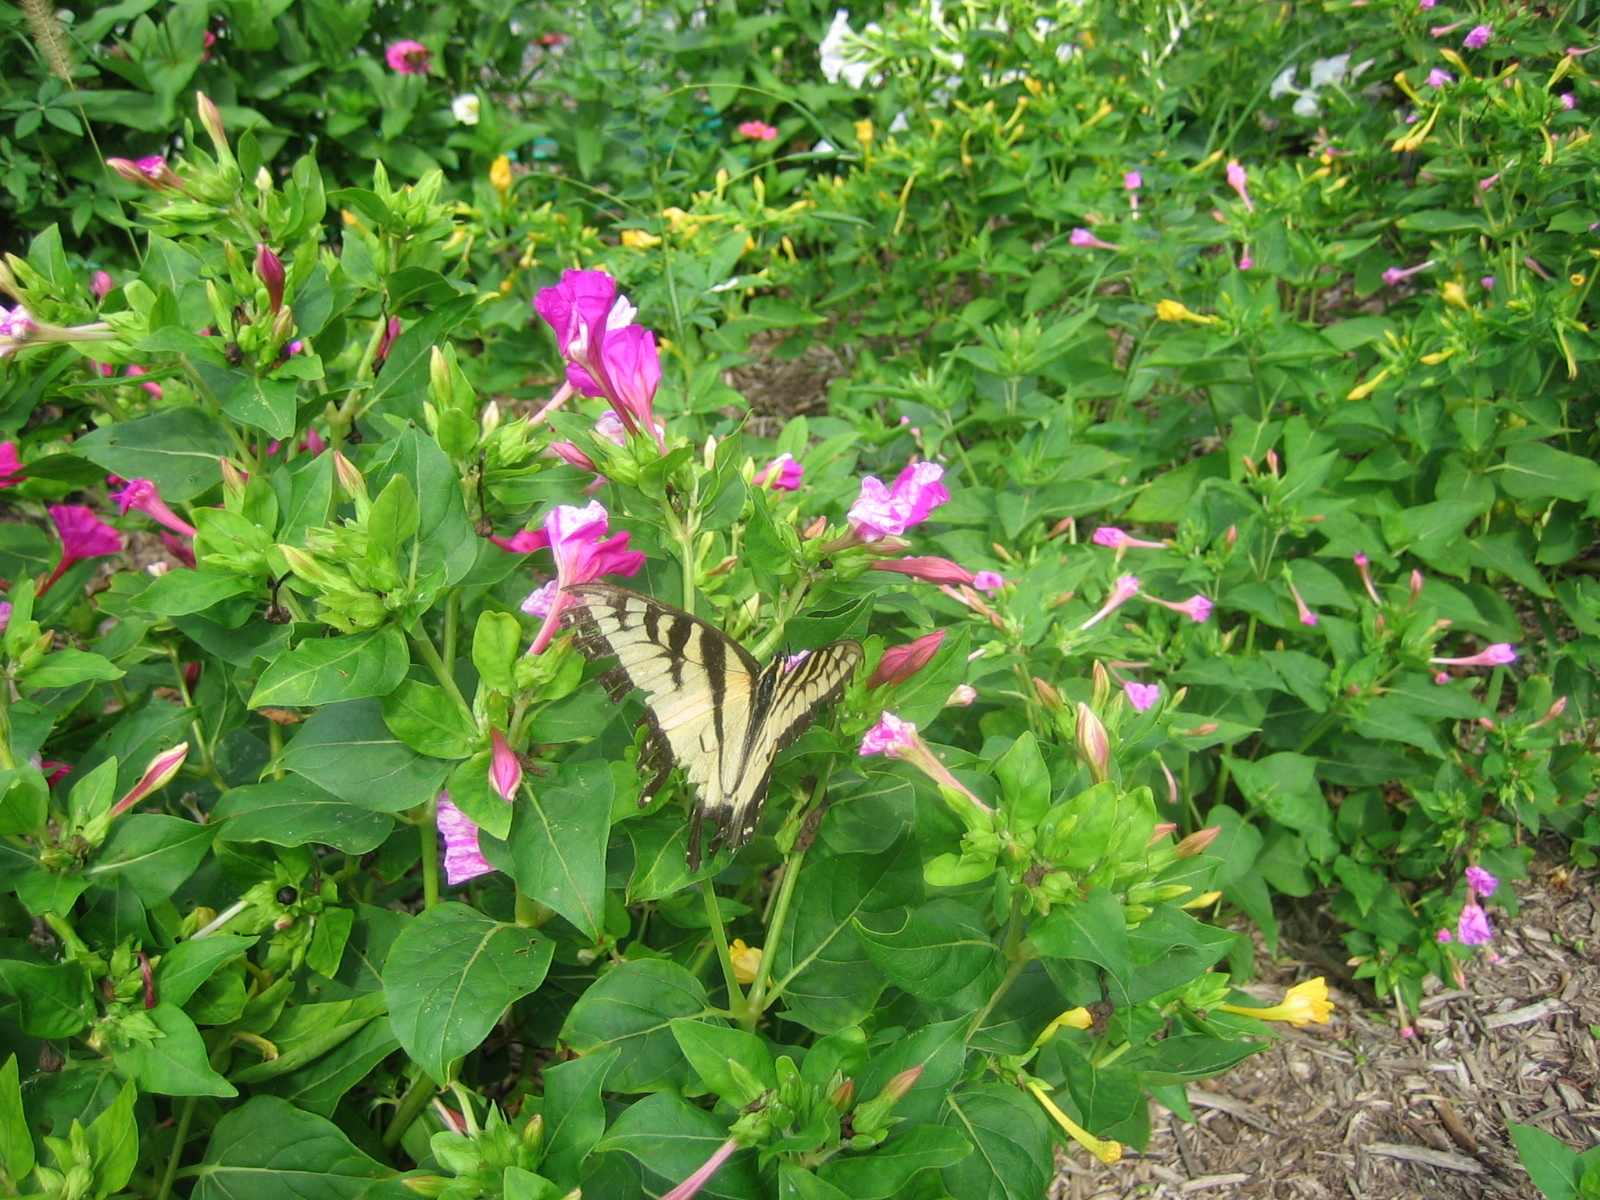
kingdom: Animalia
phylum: Arthropoda
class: Insecta
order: Lepidoptera
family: Papilionidae
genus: Papilio
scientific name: Papilio glaucus
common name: Tiger swallowtail
